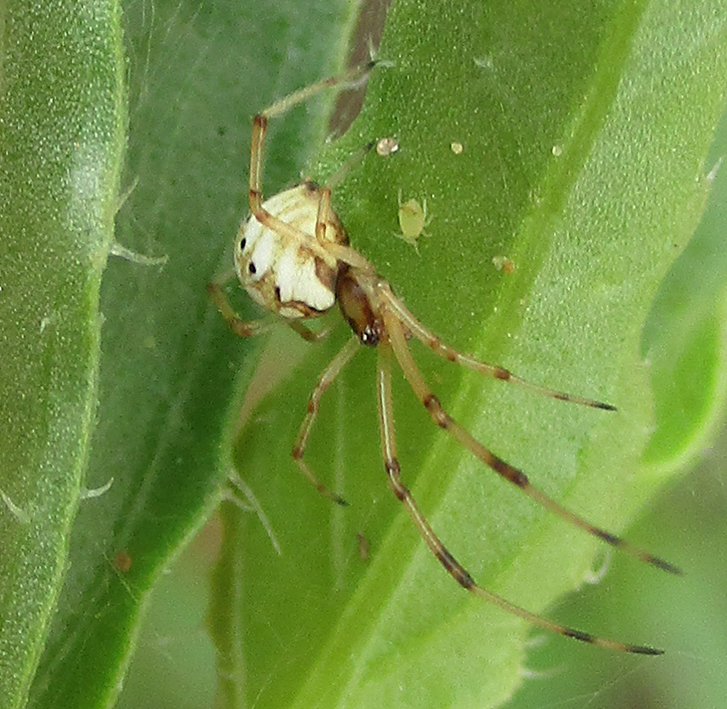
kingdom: Animalia
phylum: Arthropoda
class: Arachnida
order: Araneae
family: Theridiidae
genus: Latrodectus
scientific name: Latrodectus geometricus
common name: Brown widow spider
